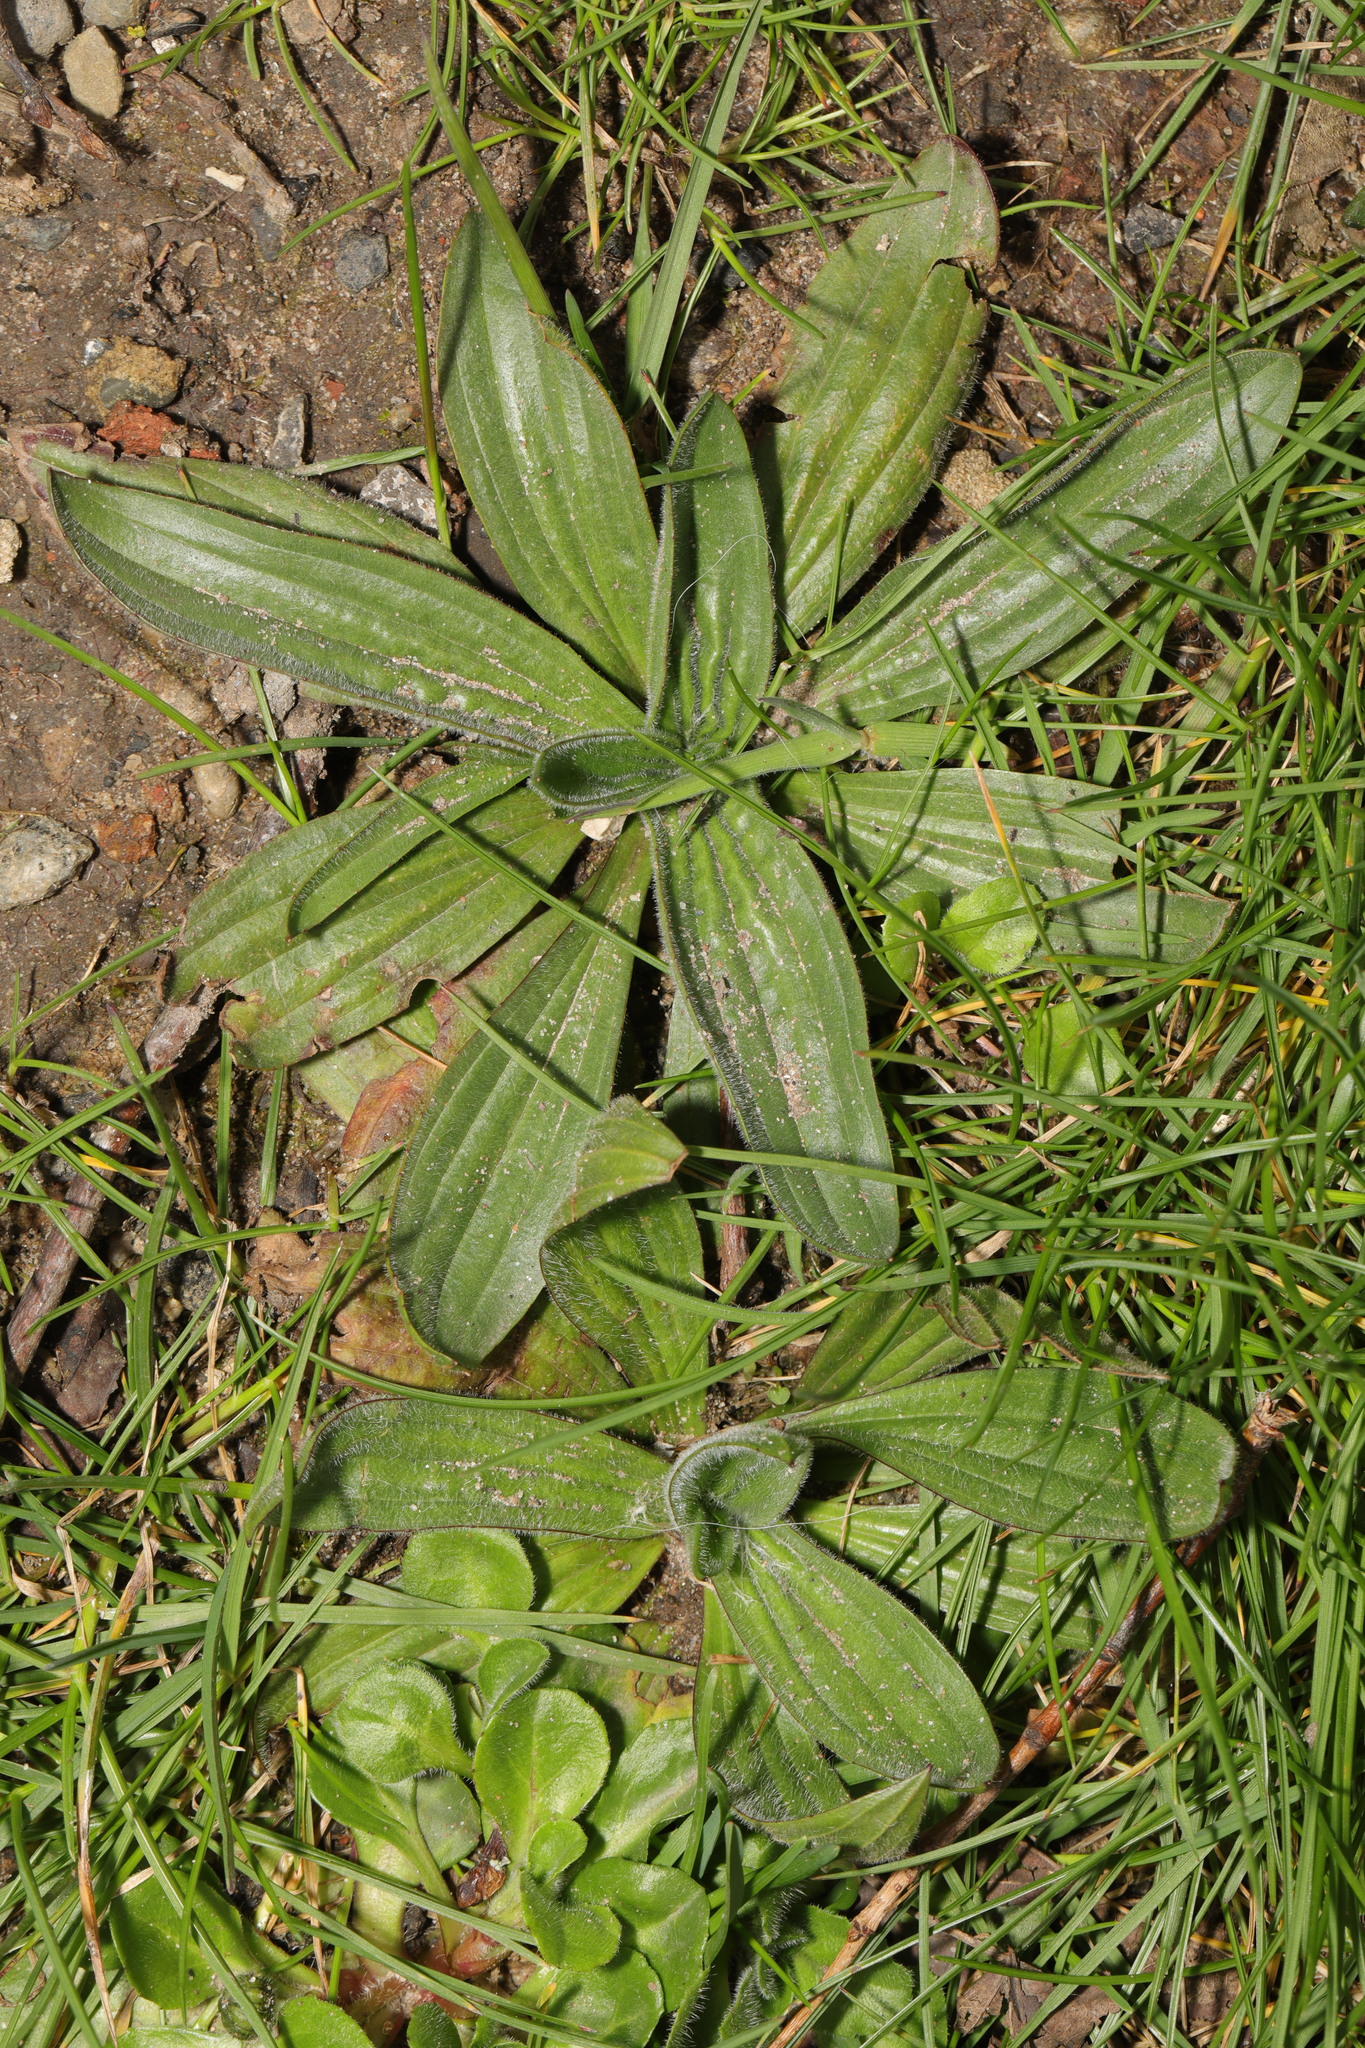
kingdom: Plantae
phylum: Tracheophyta
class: Magnoliopsida
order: Lamiales
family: Plantaginaceae
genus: Plantago
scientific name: Plantago lanceolata
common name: Ribwort plantain
